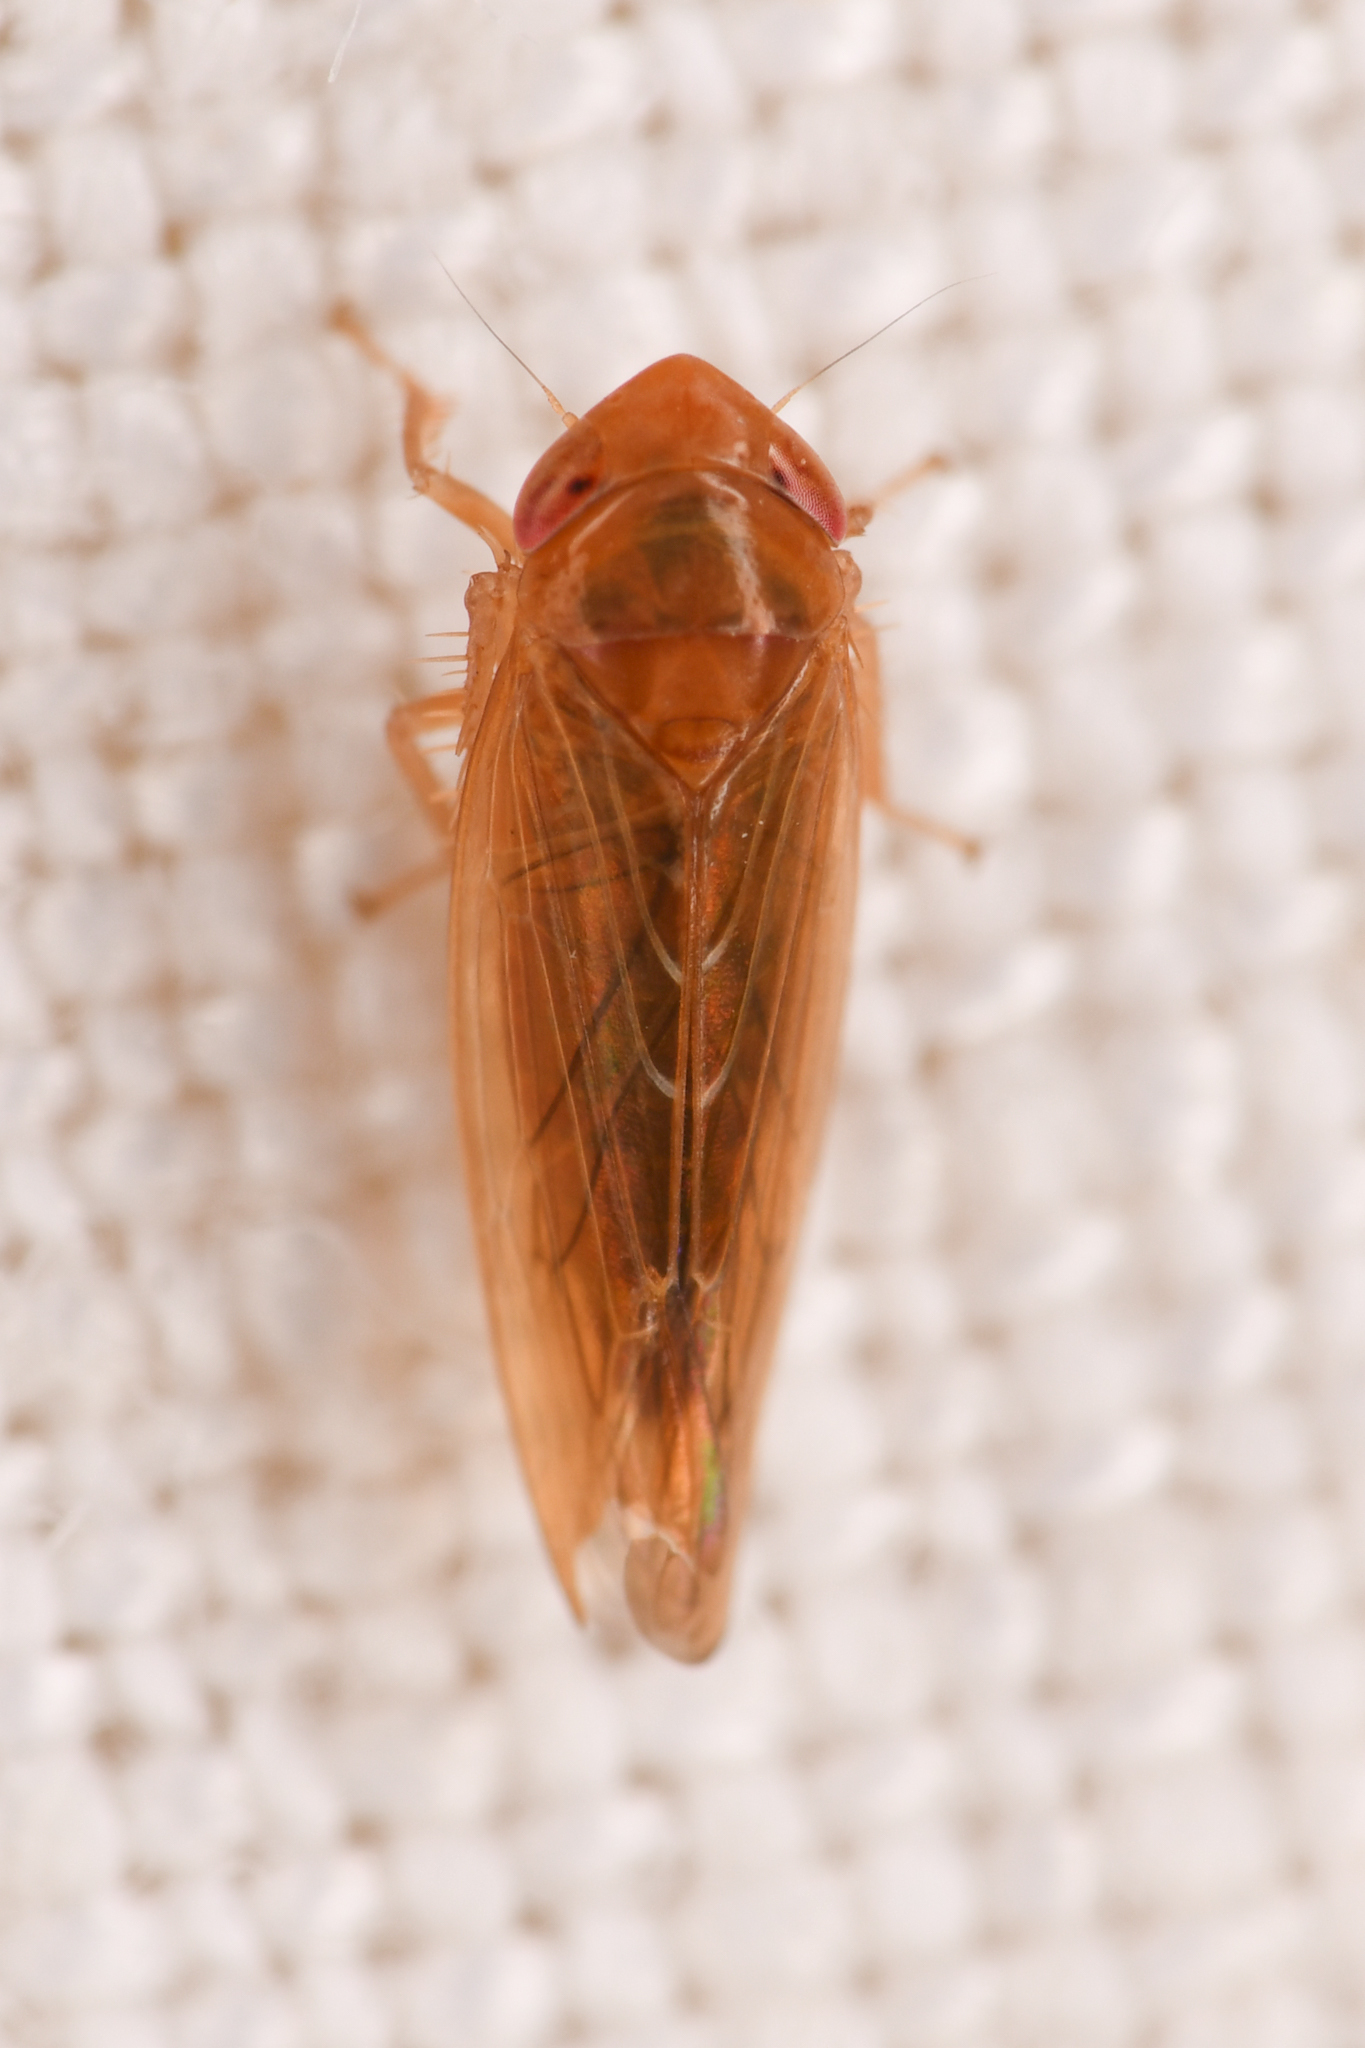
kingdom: Animalia
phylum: Arthropoda
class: Insecta
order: Hemiptera
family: Cicadellidae
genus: Colladonus
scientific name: Colladonus holmesi
